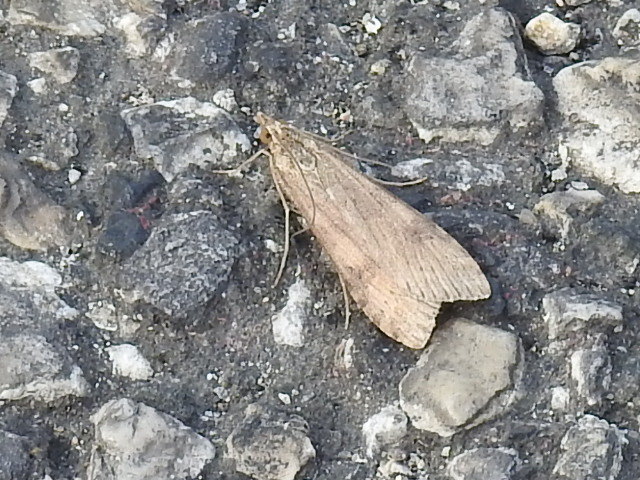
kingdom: Animalia
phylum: Arthropoda
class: Insecta
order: Lepidoptera
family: Crambidae
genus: Nomophila
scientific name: Nomophila nearctica
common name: American rush veneer
